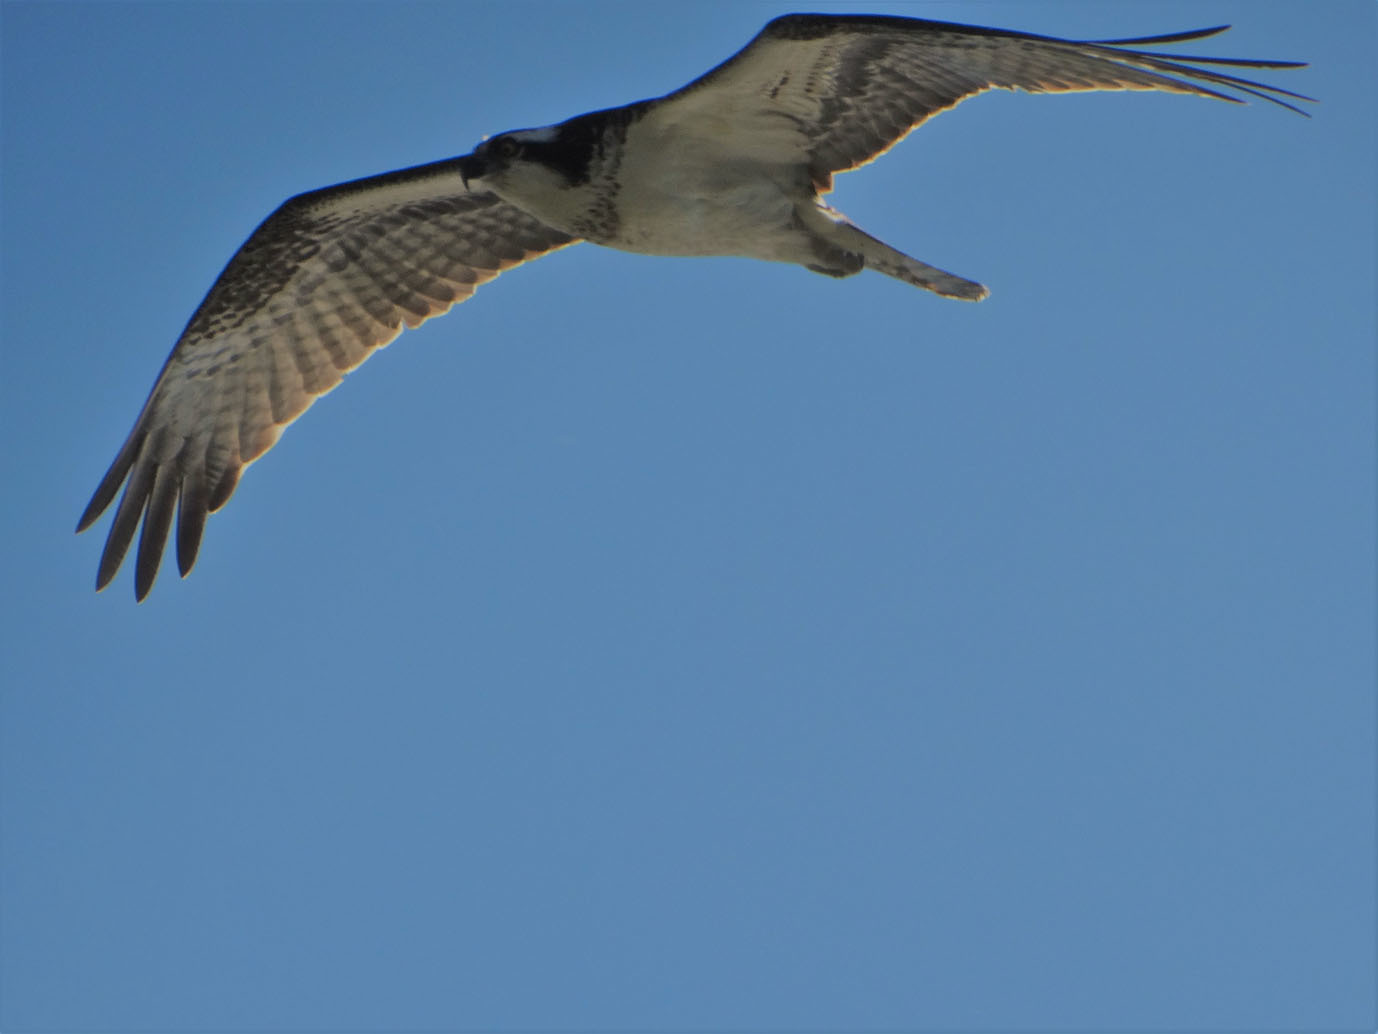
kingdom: Animalia
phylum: Chordata
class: Aves
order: Accipitriformes
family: Pandionidae
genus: Pandion
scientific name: Pandion haliaetus
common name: Osprey
